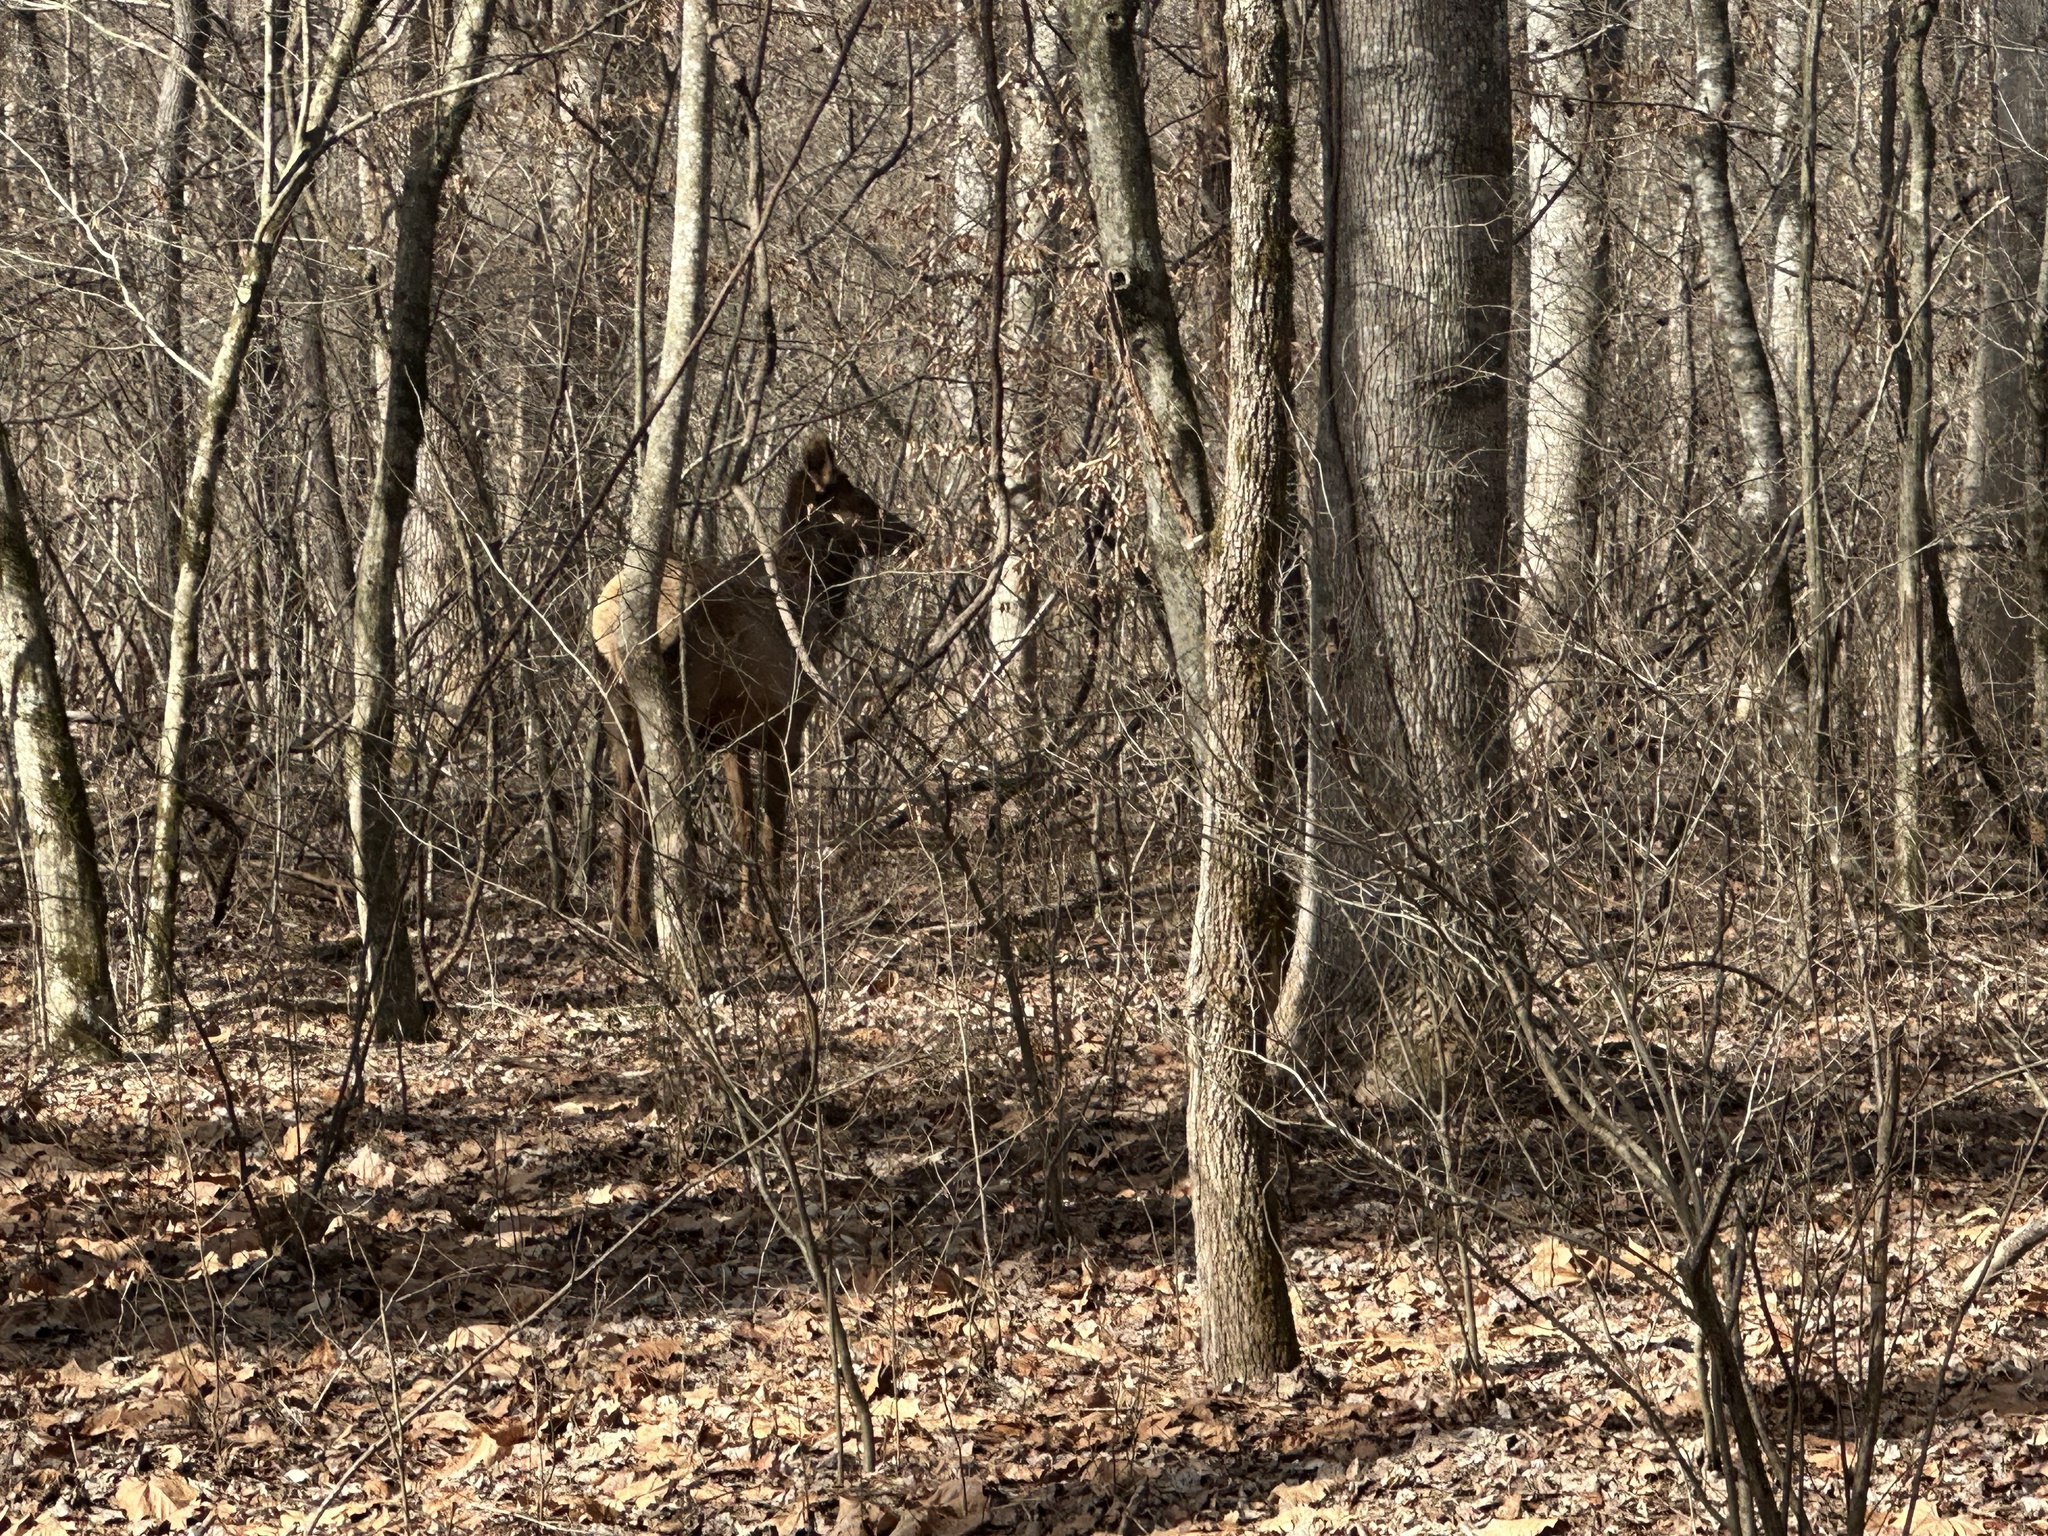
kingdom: Animalia
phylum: Chordata
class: Mammalia
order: Artiodactyla
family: Cervidae
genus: Cervus
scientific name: Cervus elaphus
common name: Red deer
